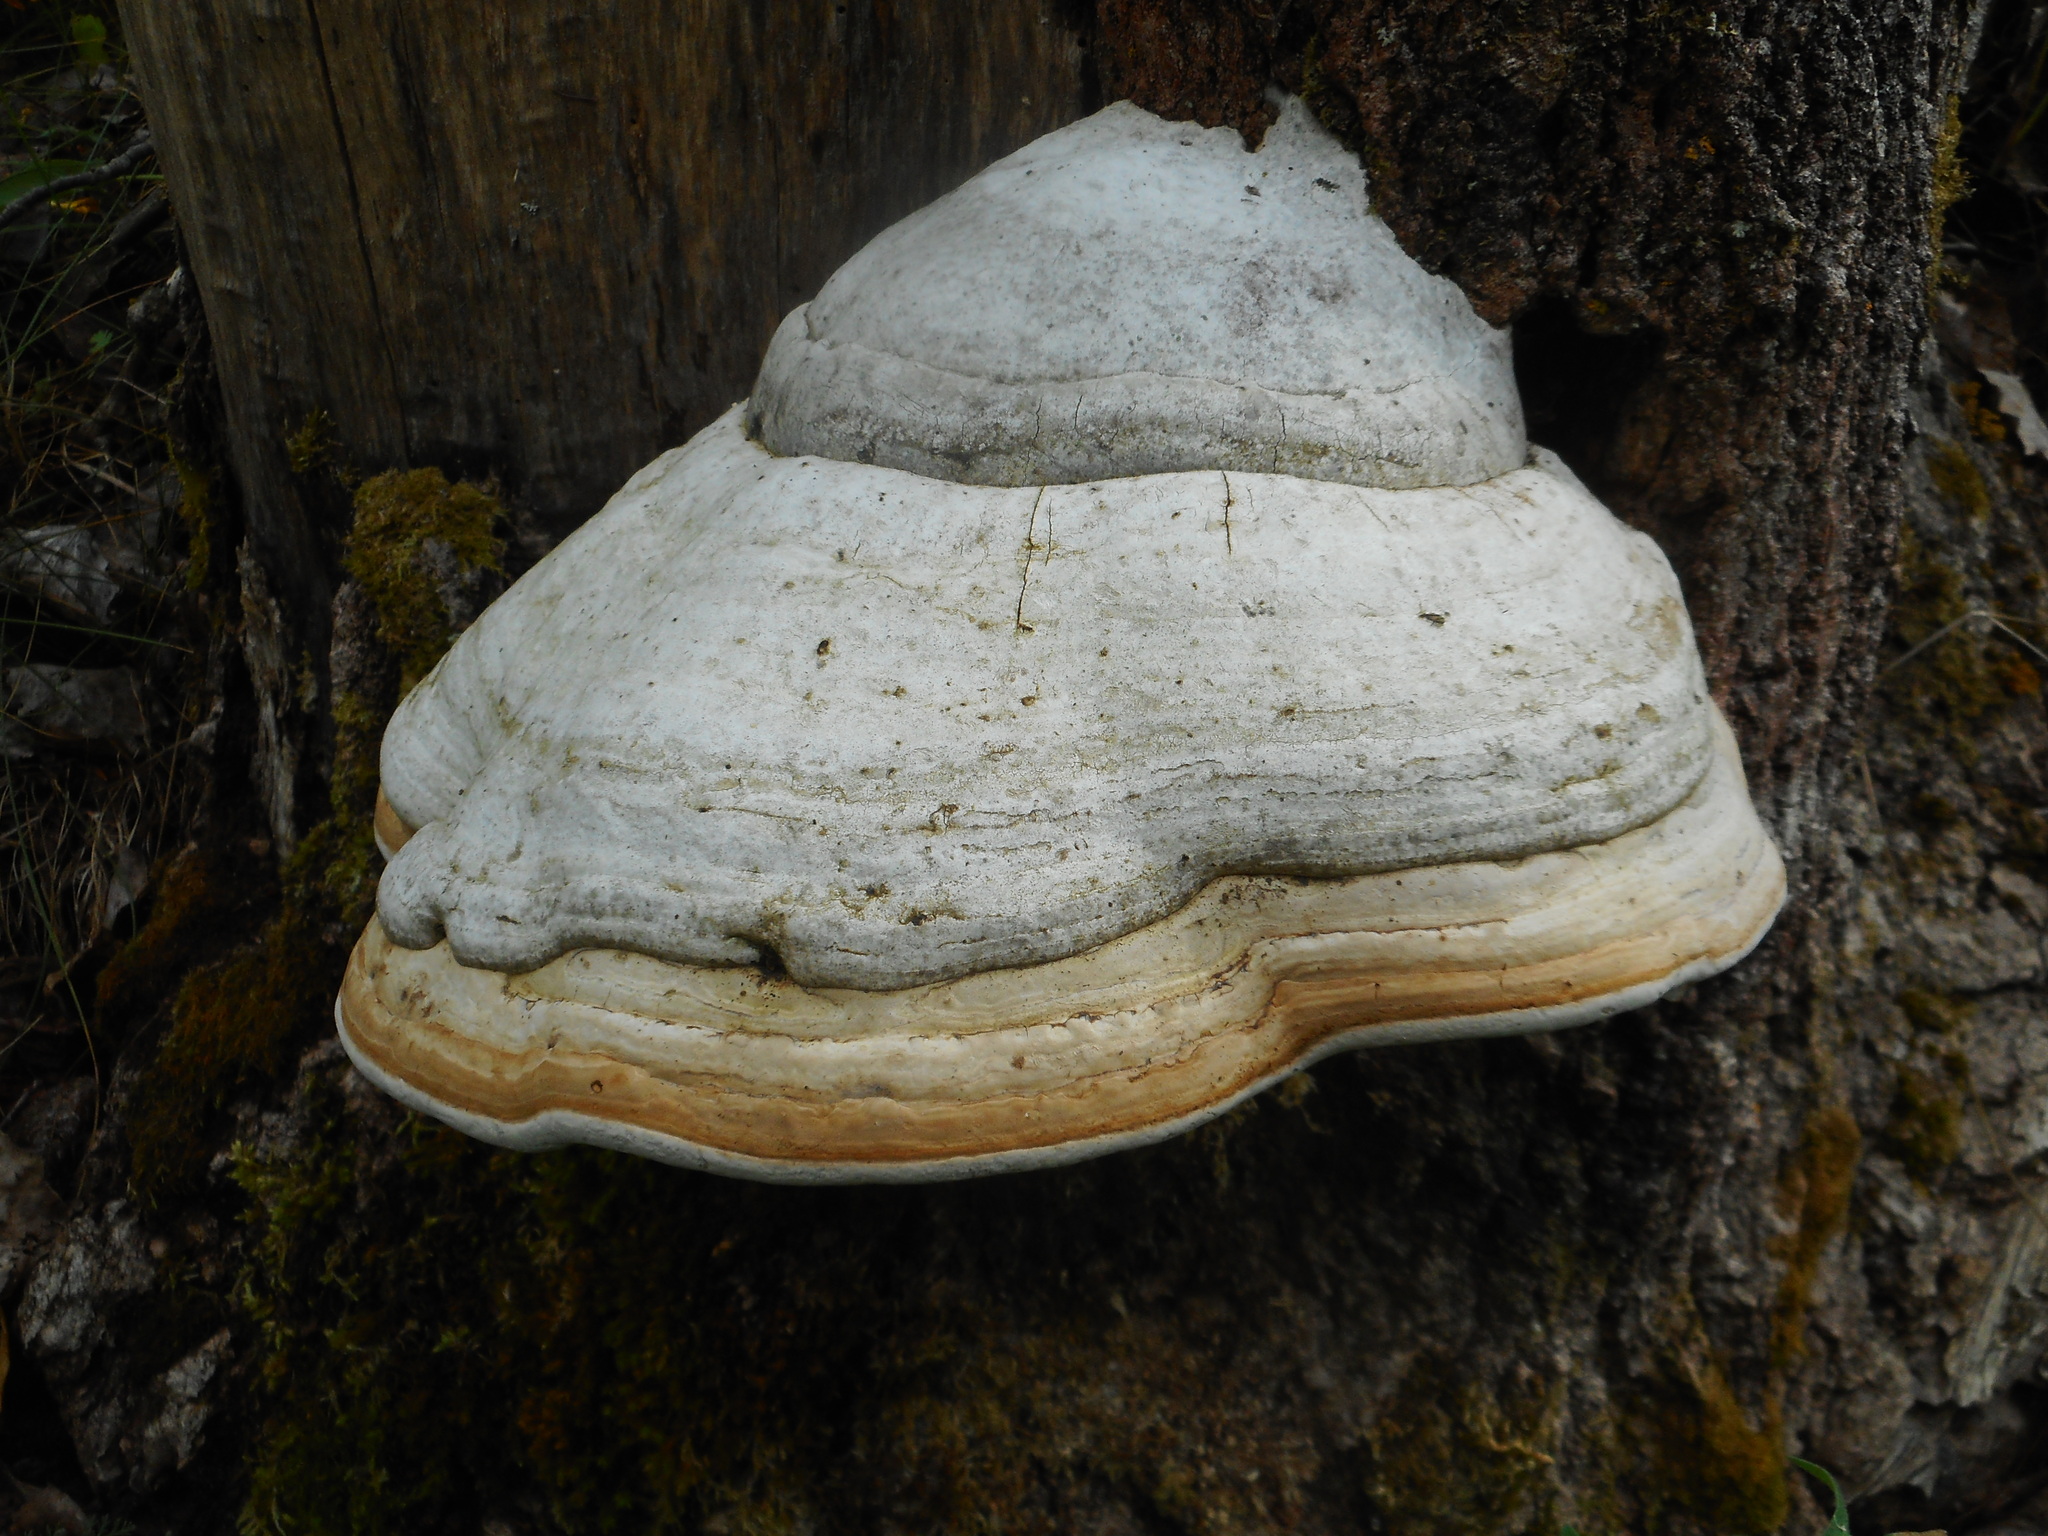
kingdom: Fungi
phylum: Basidiomycota
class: Agaricomycetes
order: Polyporales
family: Polyporaceae
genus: Fomes
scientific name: Fomes fomentarius
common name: Hoof fungus
